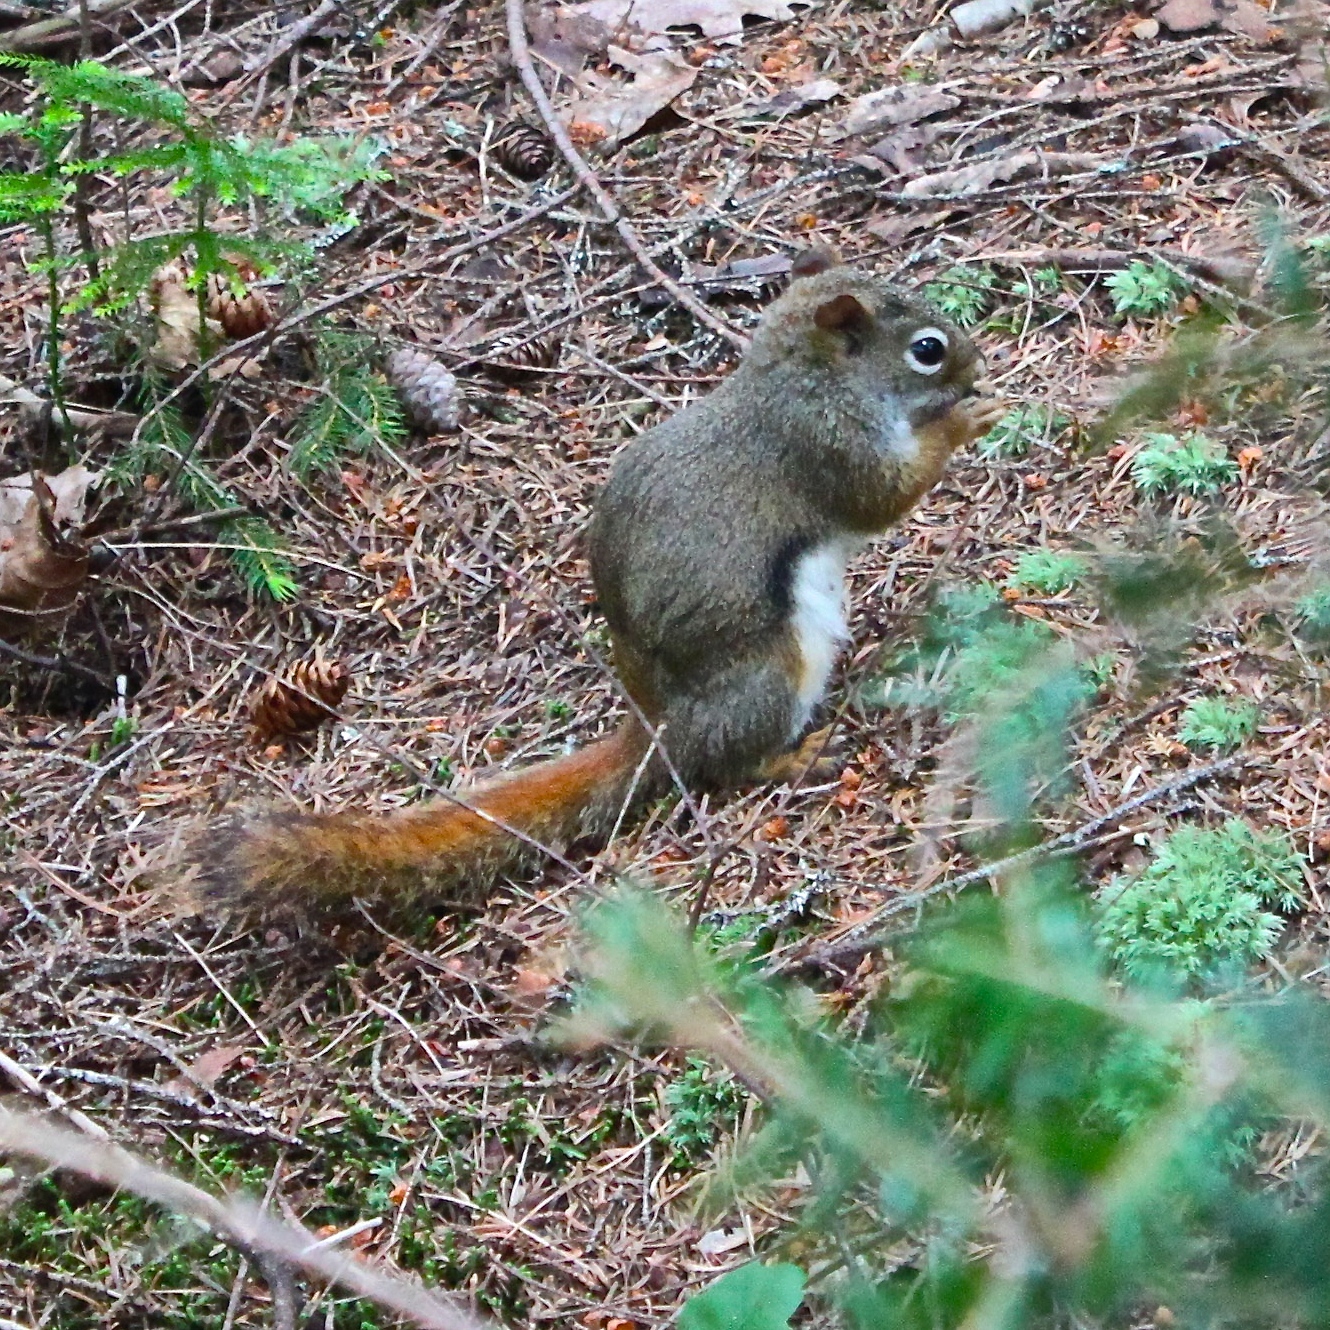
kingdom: Animalia
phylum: Chordata
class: Mammalia
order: Rodentia
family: Sciuridae
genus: Tamiasciurus
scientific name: Tamiasciurus hudsonicus
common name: Red squirrel
